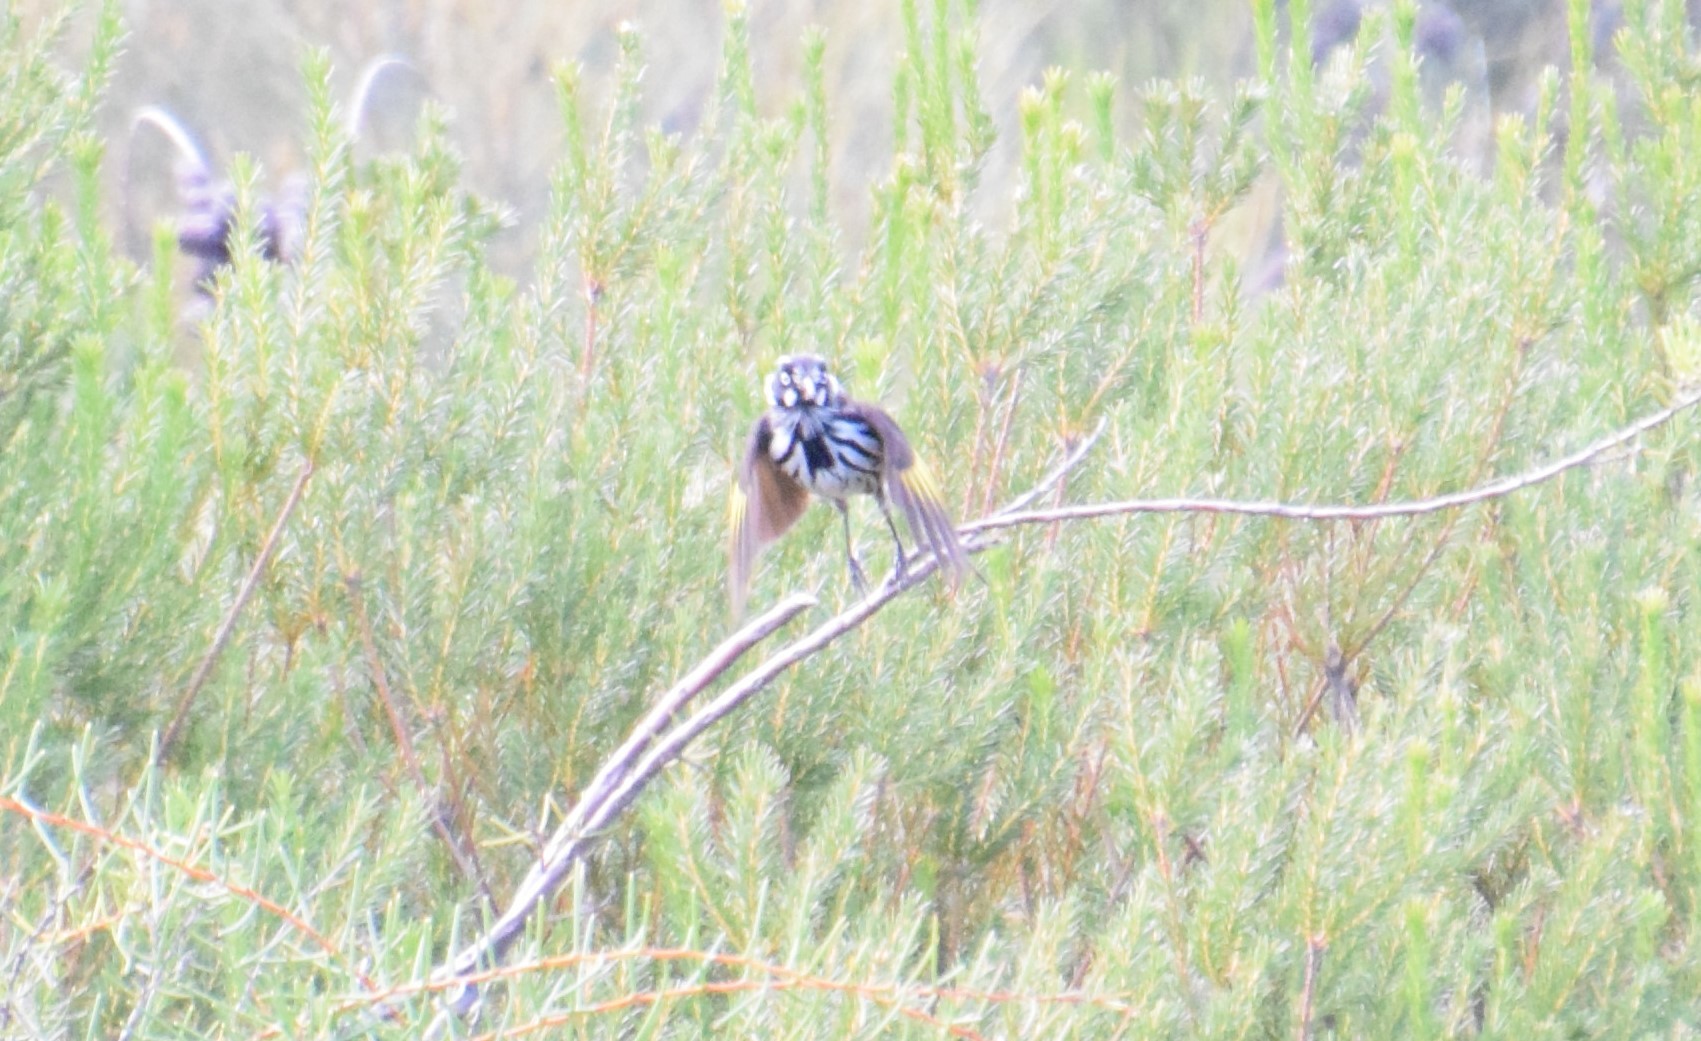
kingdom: Animalia
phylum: Chordata
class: Aves
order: Passeriformes
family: Meliphagidae
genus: Phylidonyris
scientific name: Phylidonyris novaehollandiae
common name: New holland honeyeater
